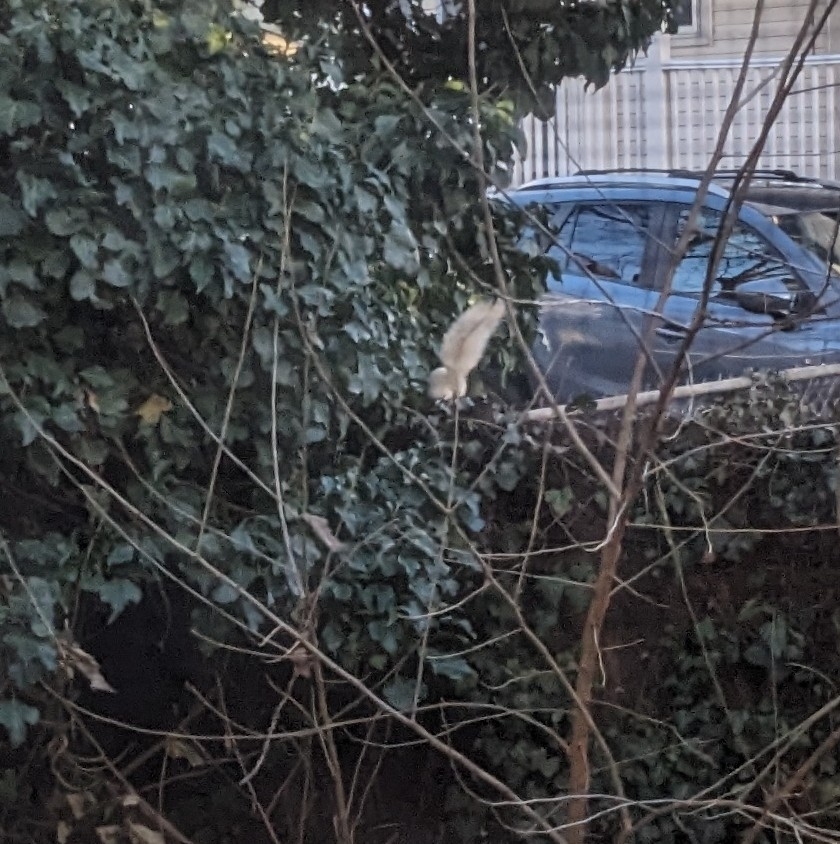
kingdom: Animalia
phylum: Chordata
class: Mammalia
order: Rodentia
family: Sciuridae
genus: Sciurus
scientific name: Sciurus carolinensis
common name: Eastern gray squirrel
